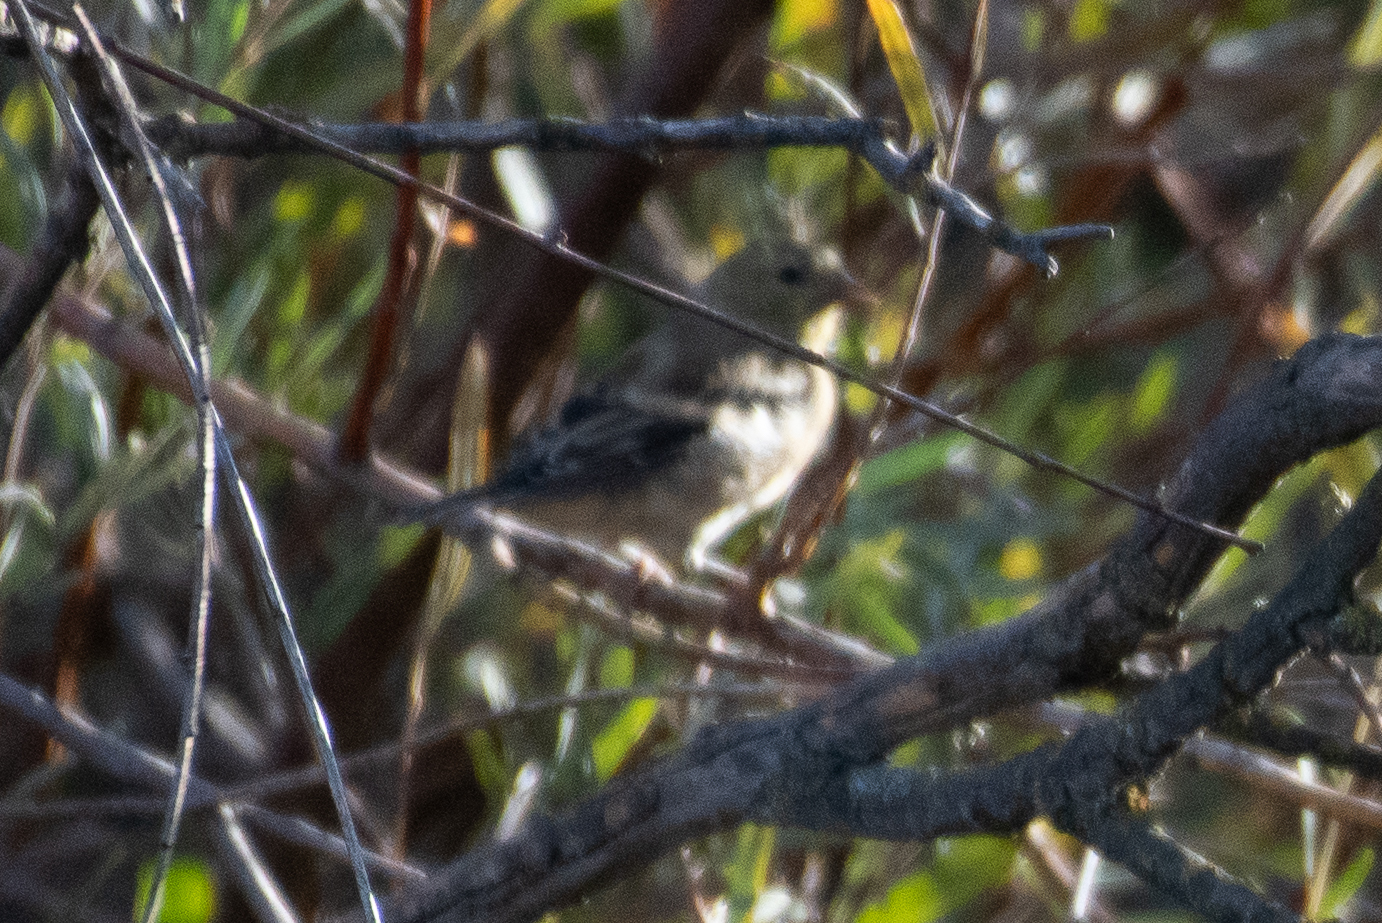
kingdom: Animalia
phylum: Chordata
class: Aves
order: Passeriformes
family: Fringillidae
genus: Spinus
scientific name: Spinus tristis
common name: American goldfinch
